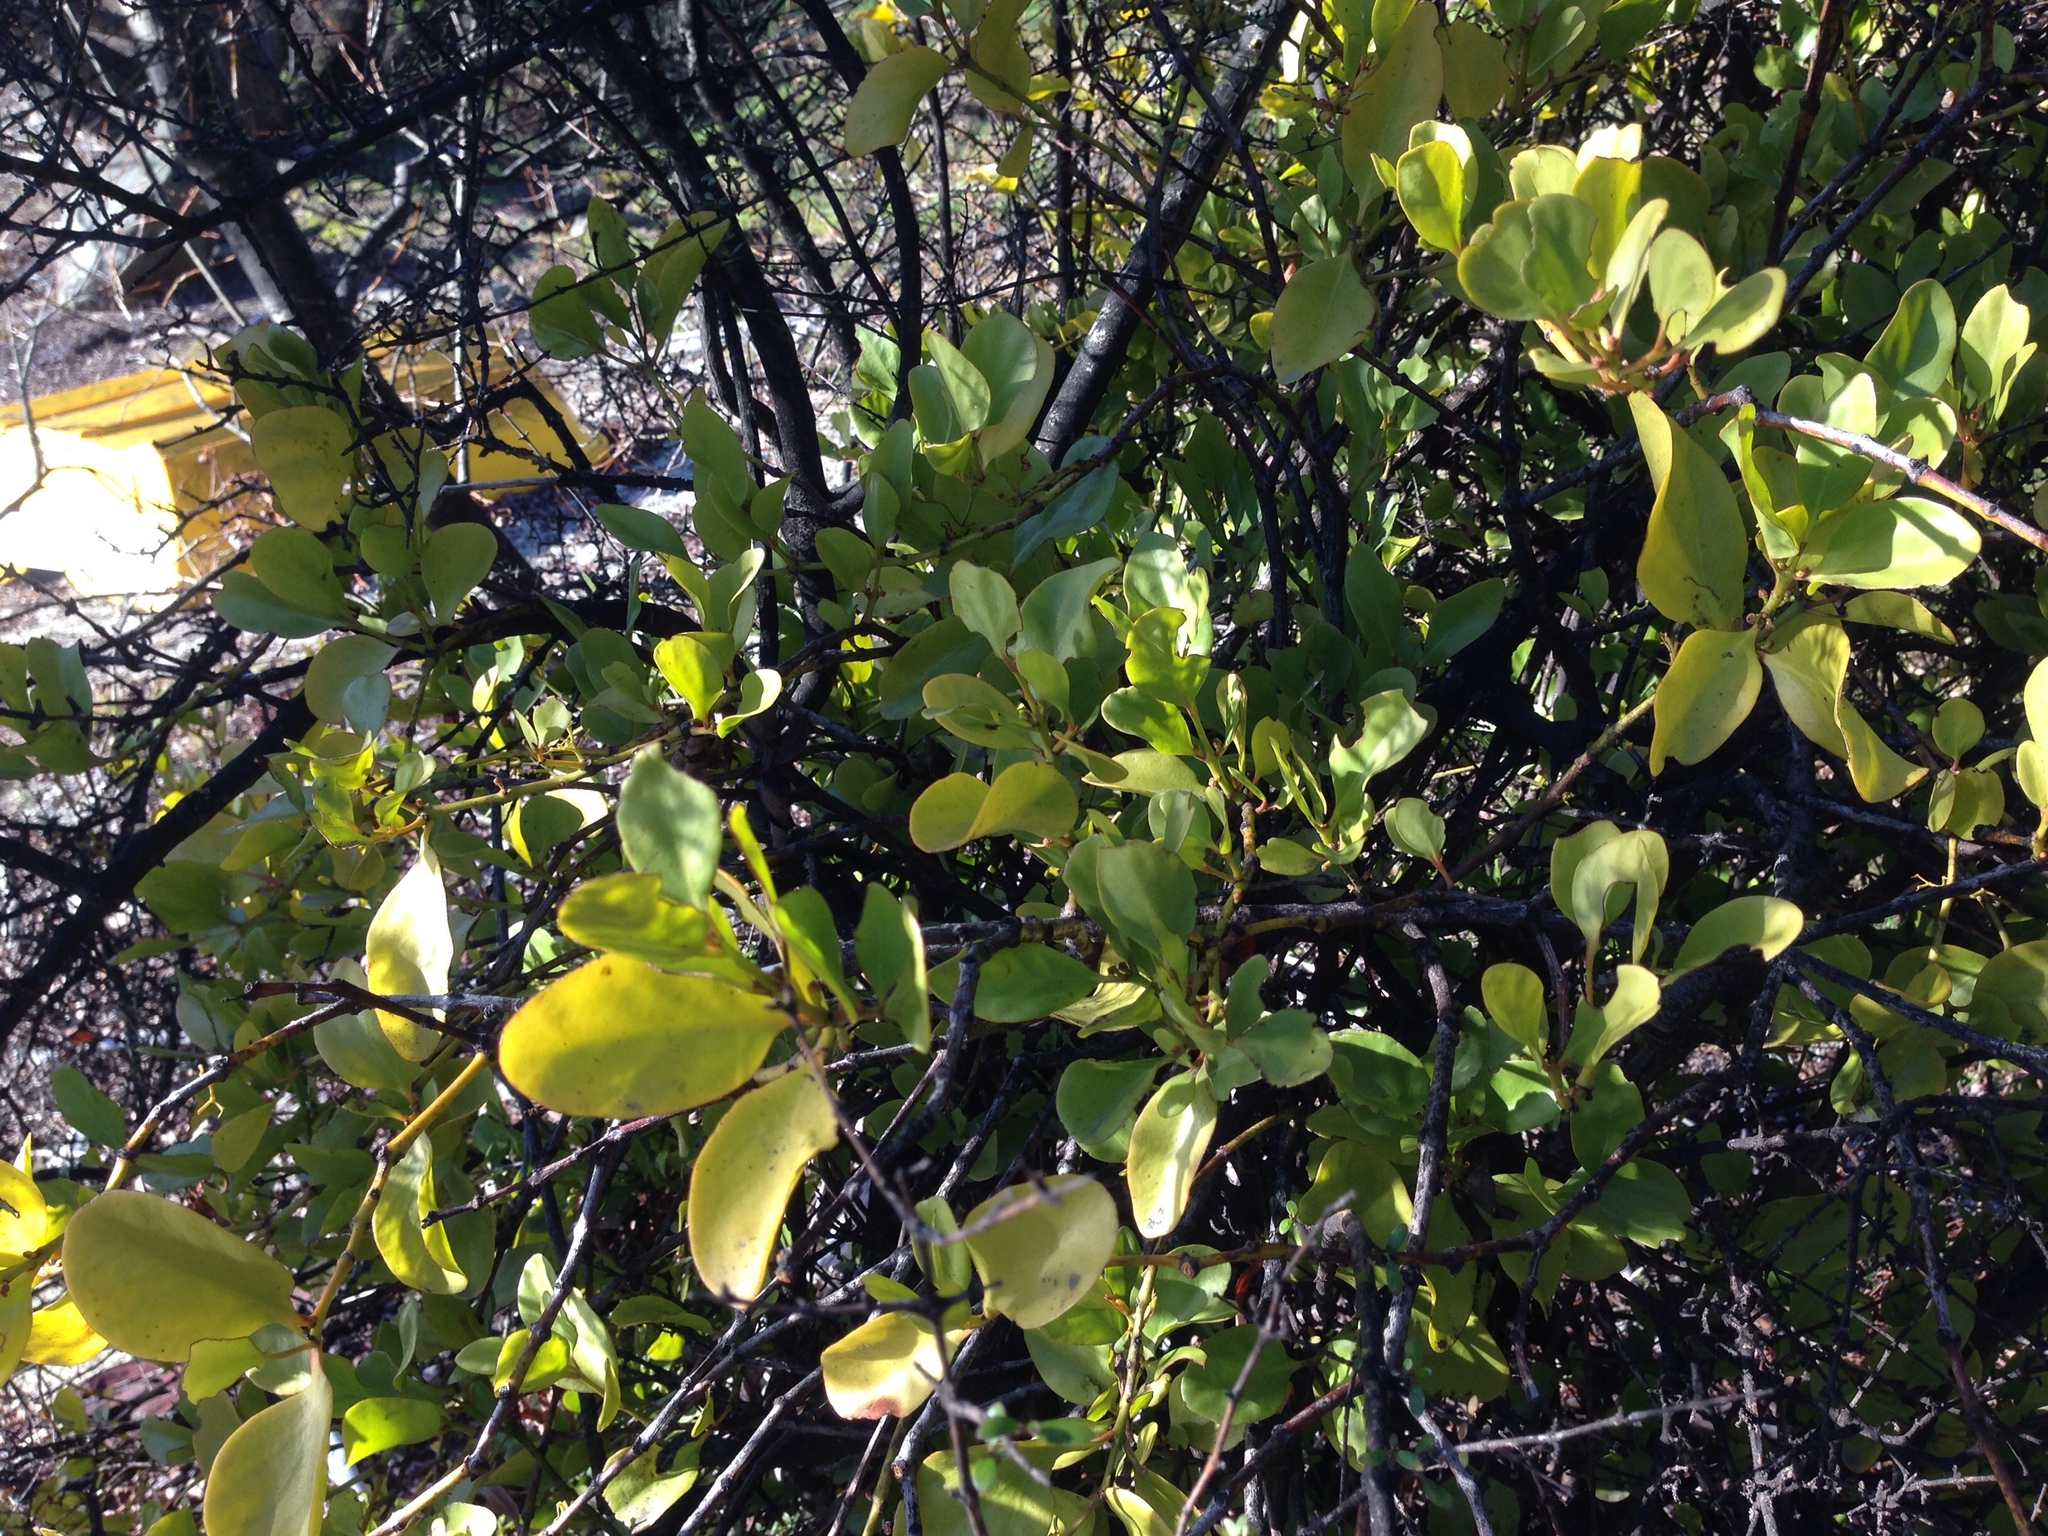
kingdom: Plantae
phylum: Tracheophyta
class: Magnoliopsida
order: Santalales
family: Loranthaceae
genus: Ileostylus
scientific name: Ileostylus micranthus
